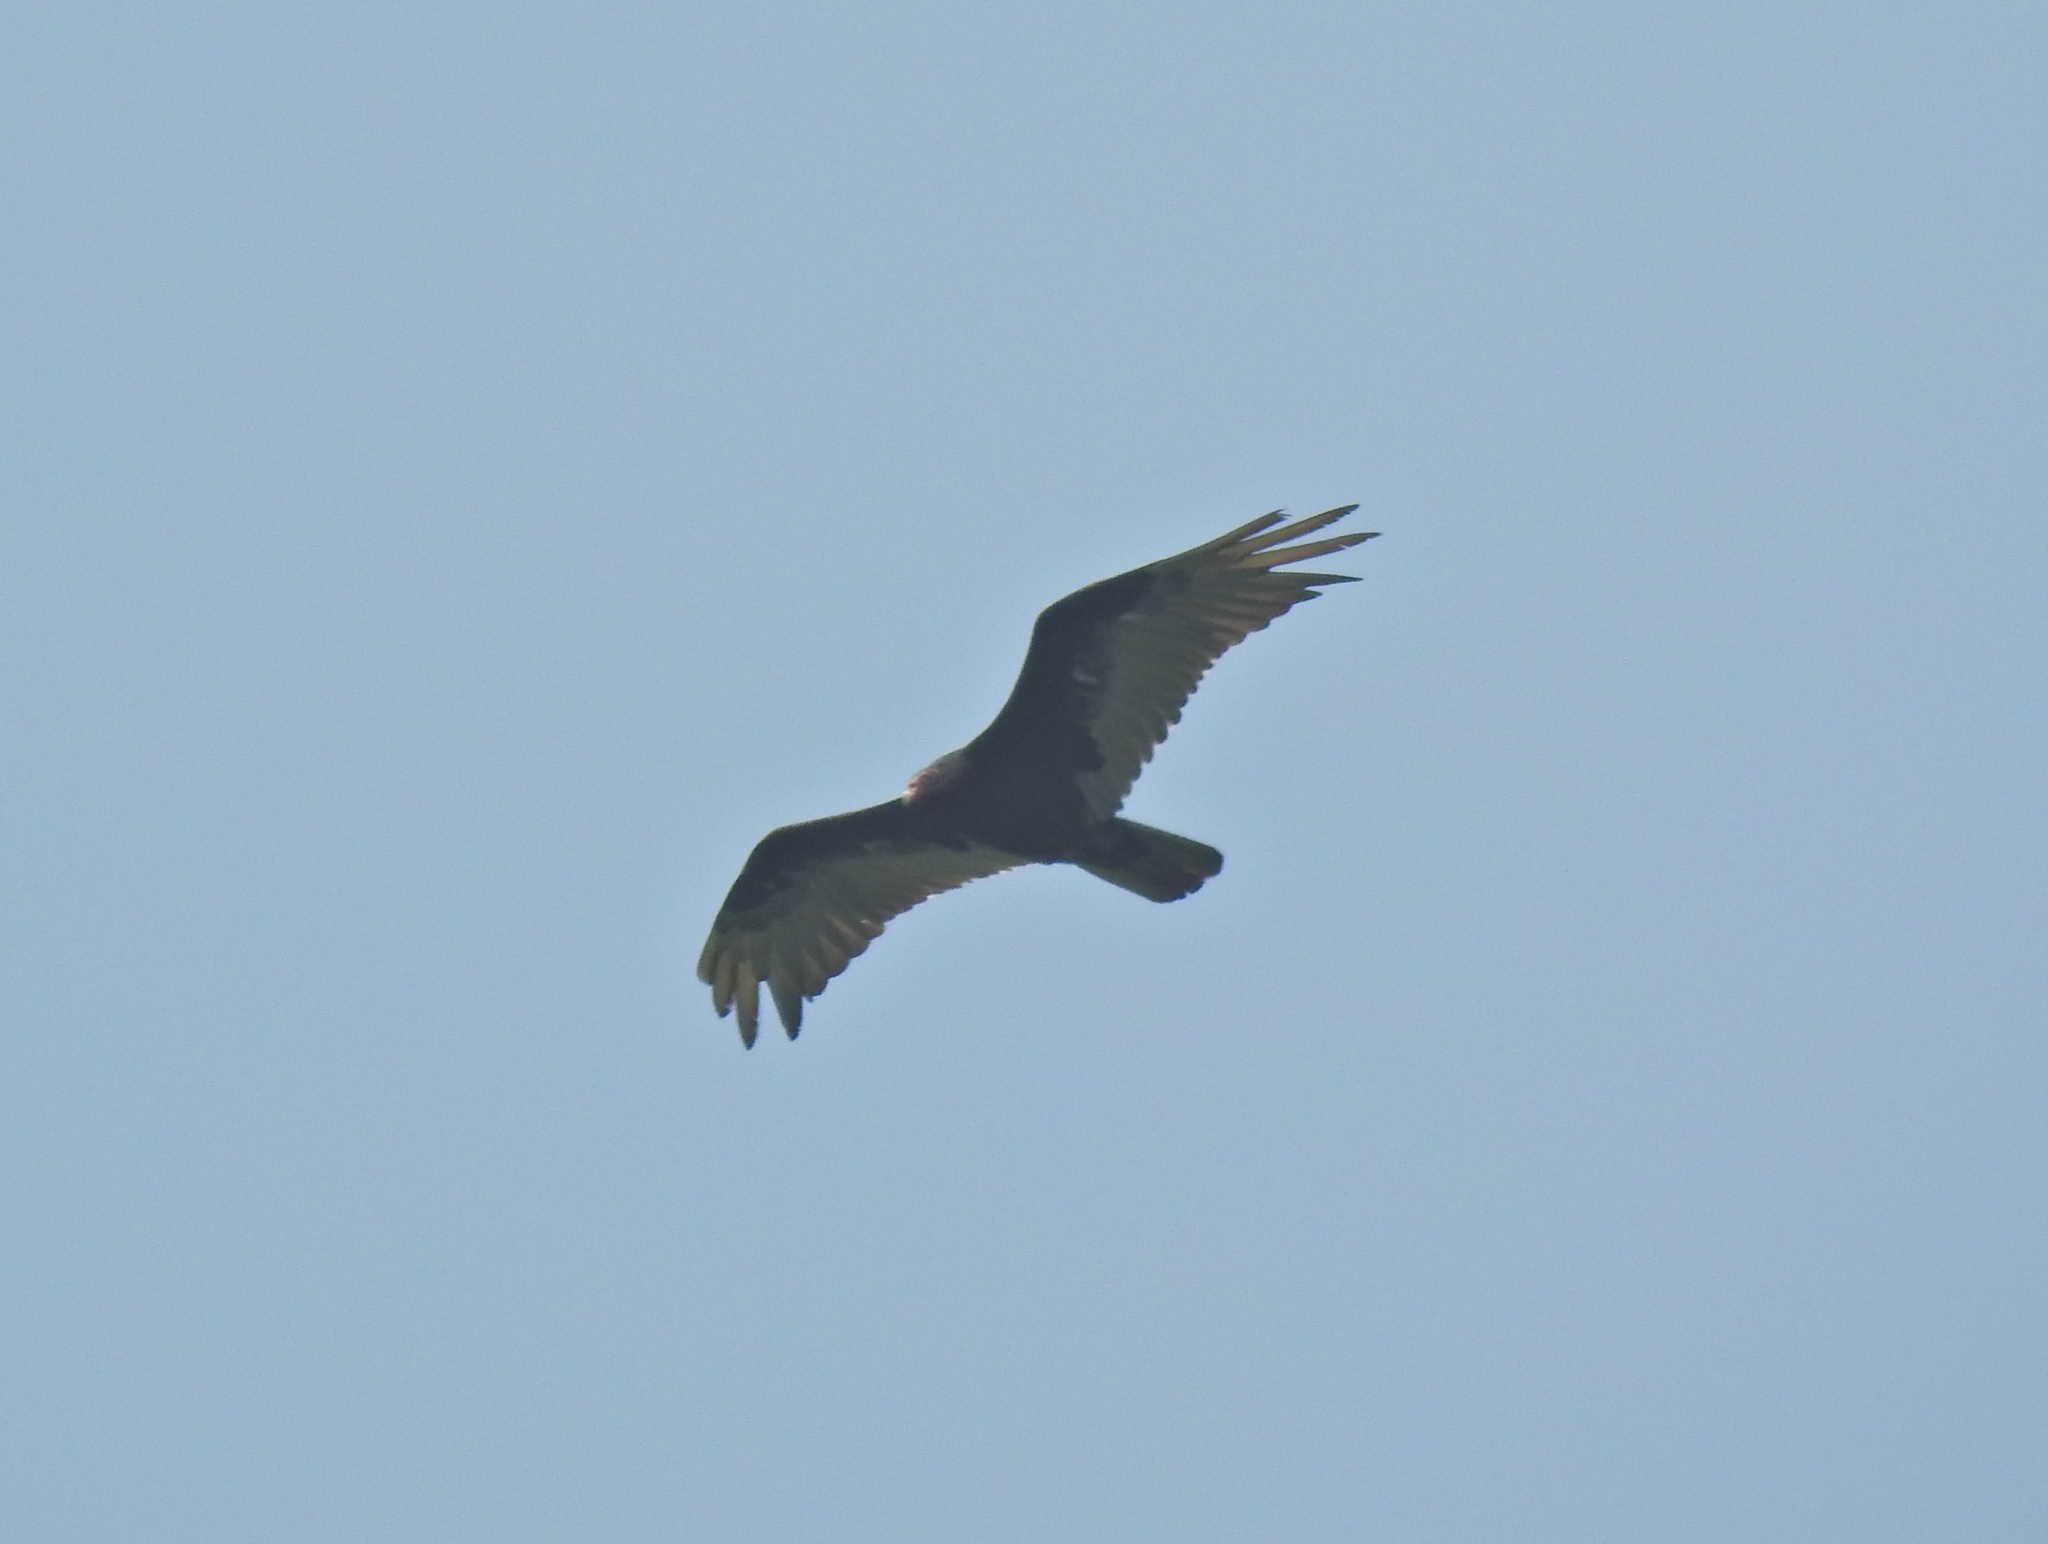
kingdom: Animalia
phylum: Chordata
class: Aves
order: Accipitriformes
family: Cathartidae
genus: Cathartes
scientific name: Cathartes aura
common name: Turkey vulture
